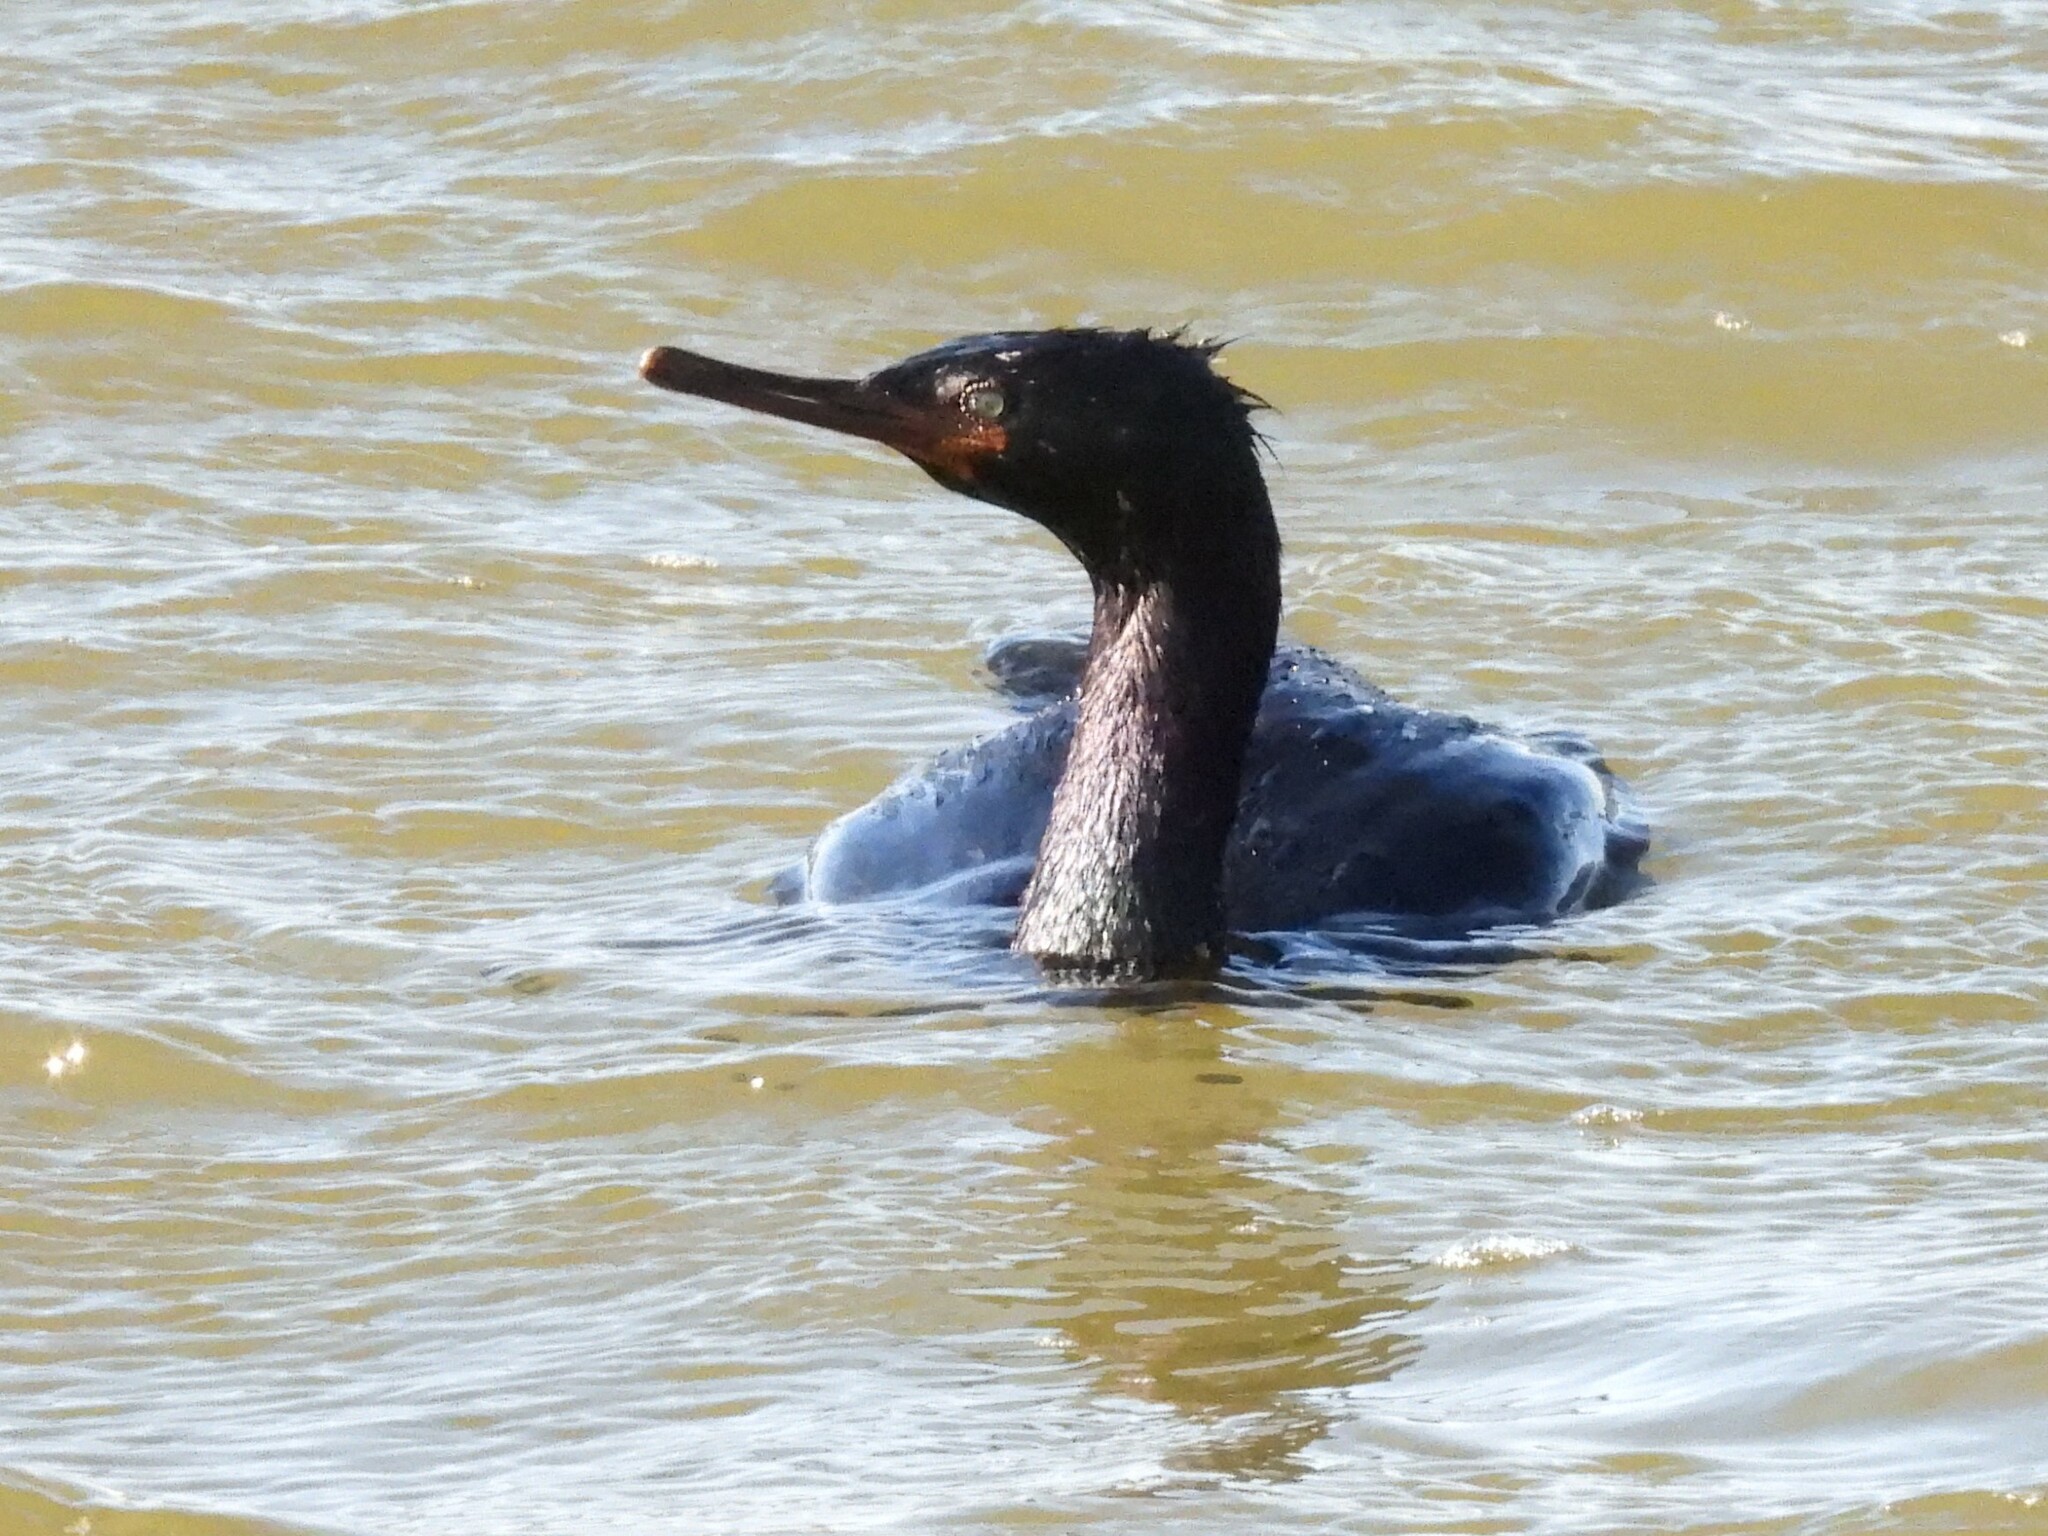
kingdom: Animalia
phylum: Chordata
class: Aves
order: Suliformes
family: Phalacrocoracidae
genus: Phalacrocorax
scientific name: Phalacrocorax pelagicus
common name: Pelagic cormorant
